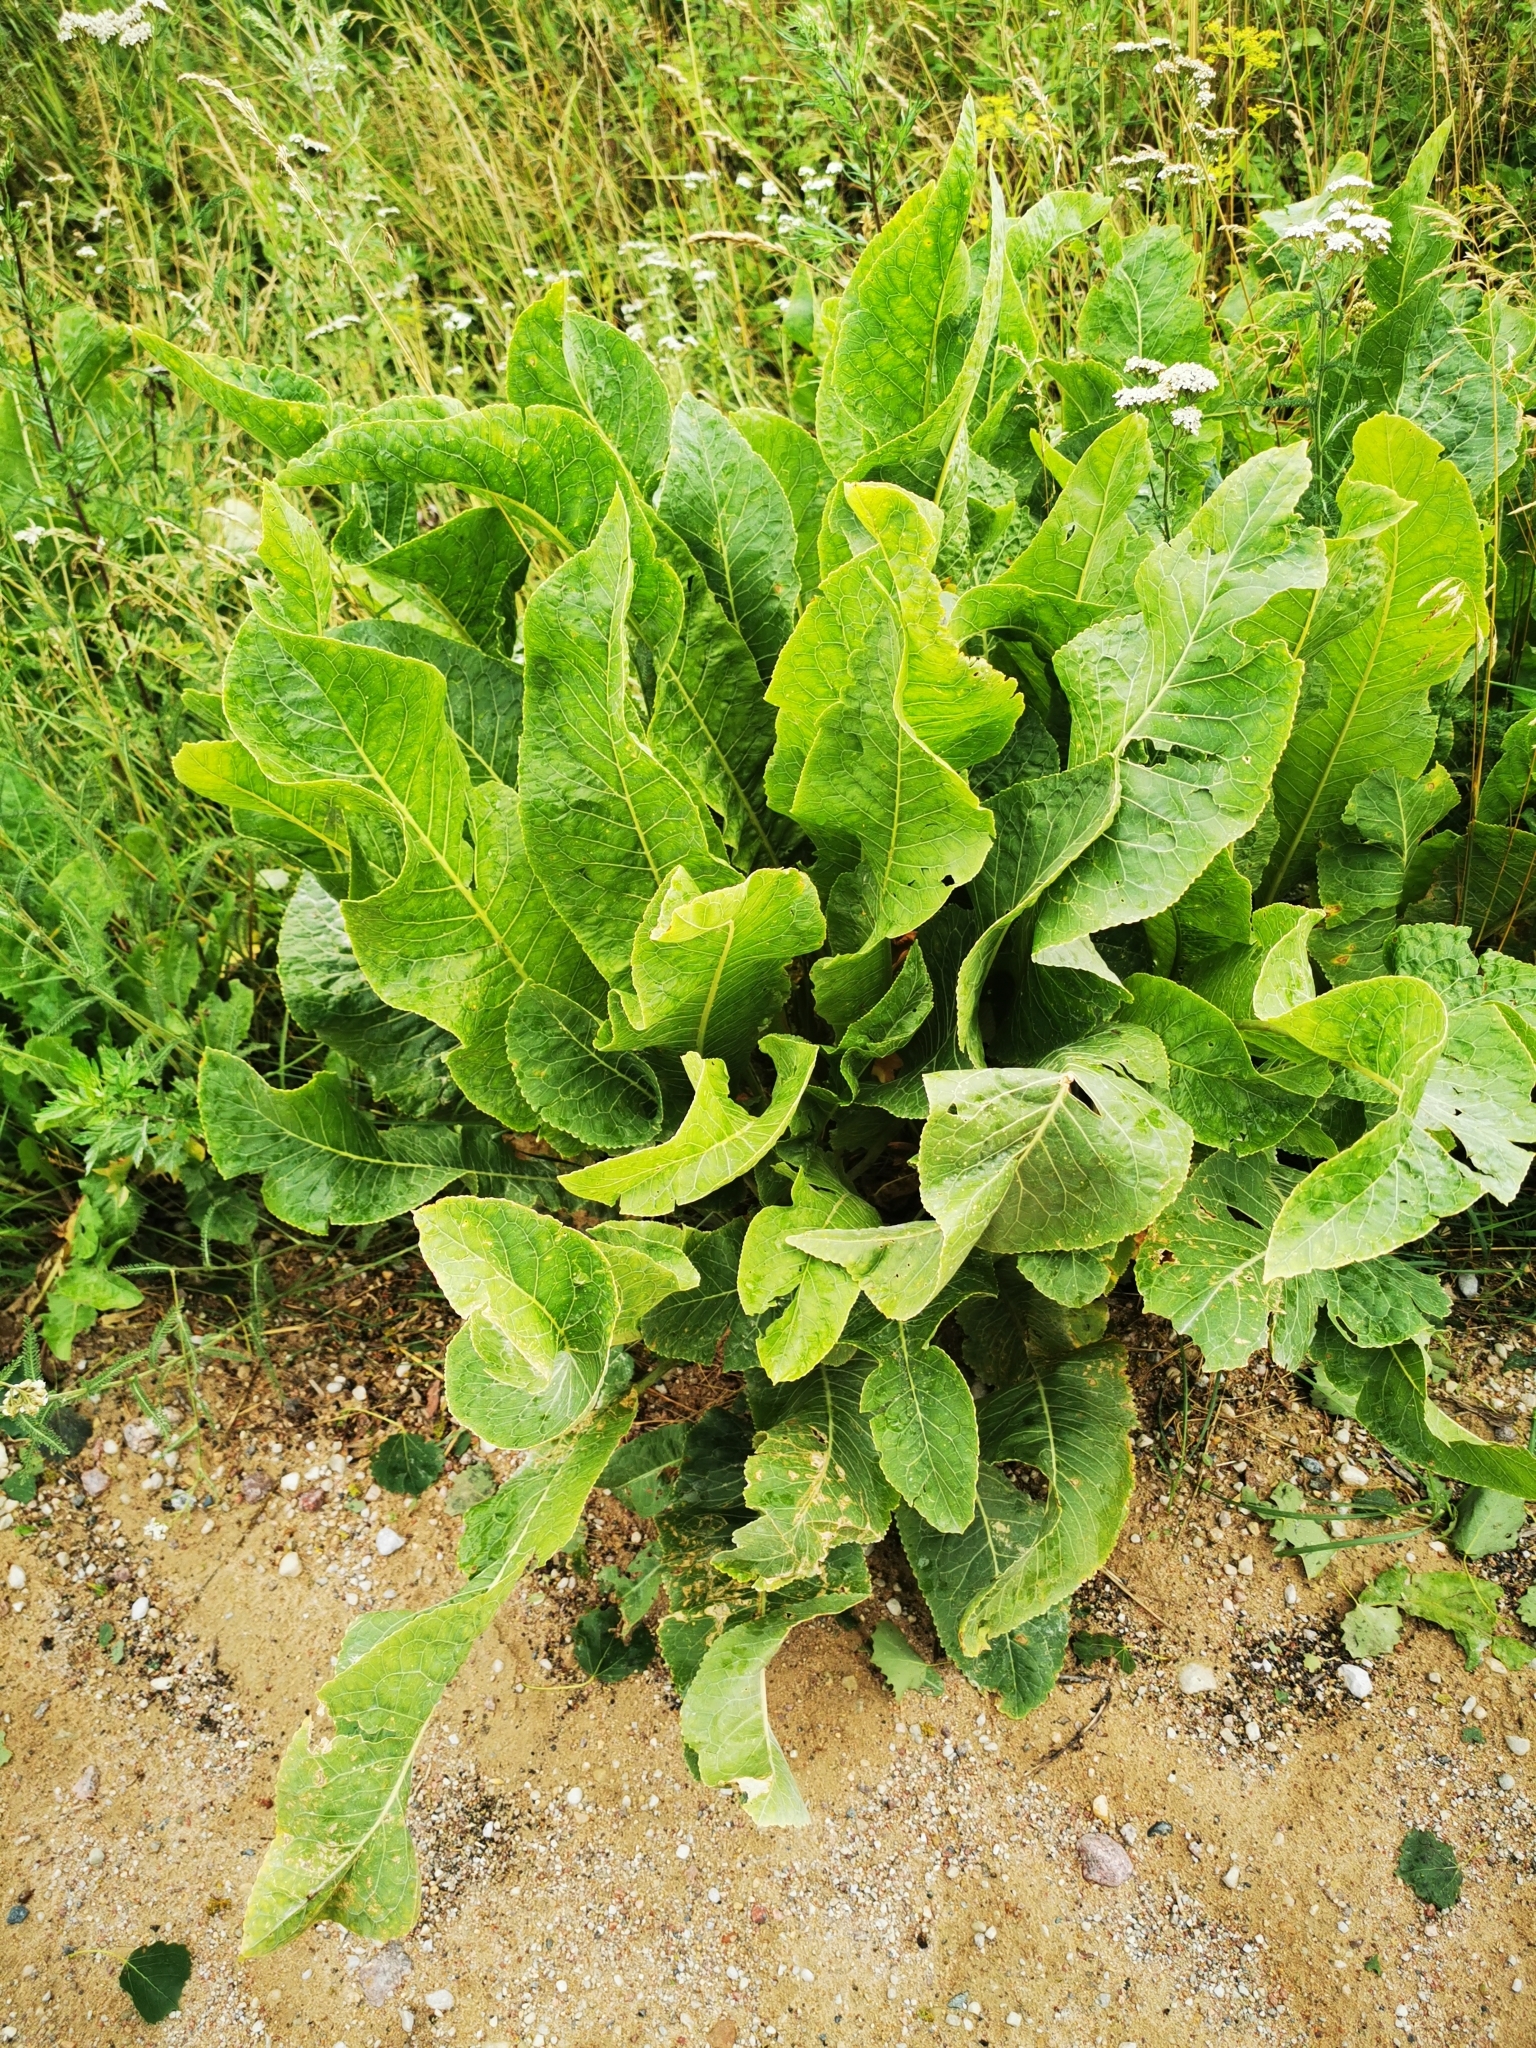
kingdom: Plantae
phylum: Tracheophyta
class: Magnoliopsida
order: Brassicales
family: Brassicaceae
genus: Armoracia
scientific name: Armoracia rusticana
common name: Horseradish
